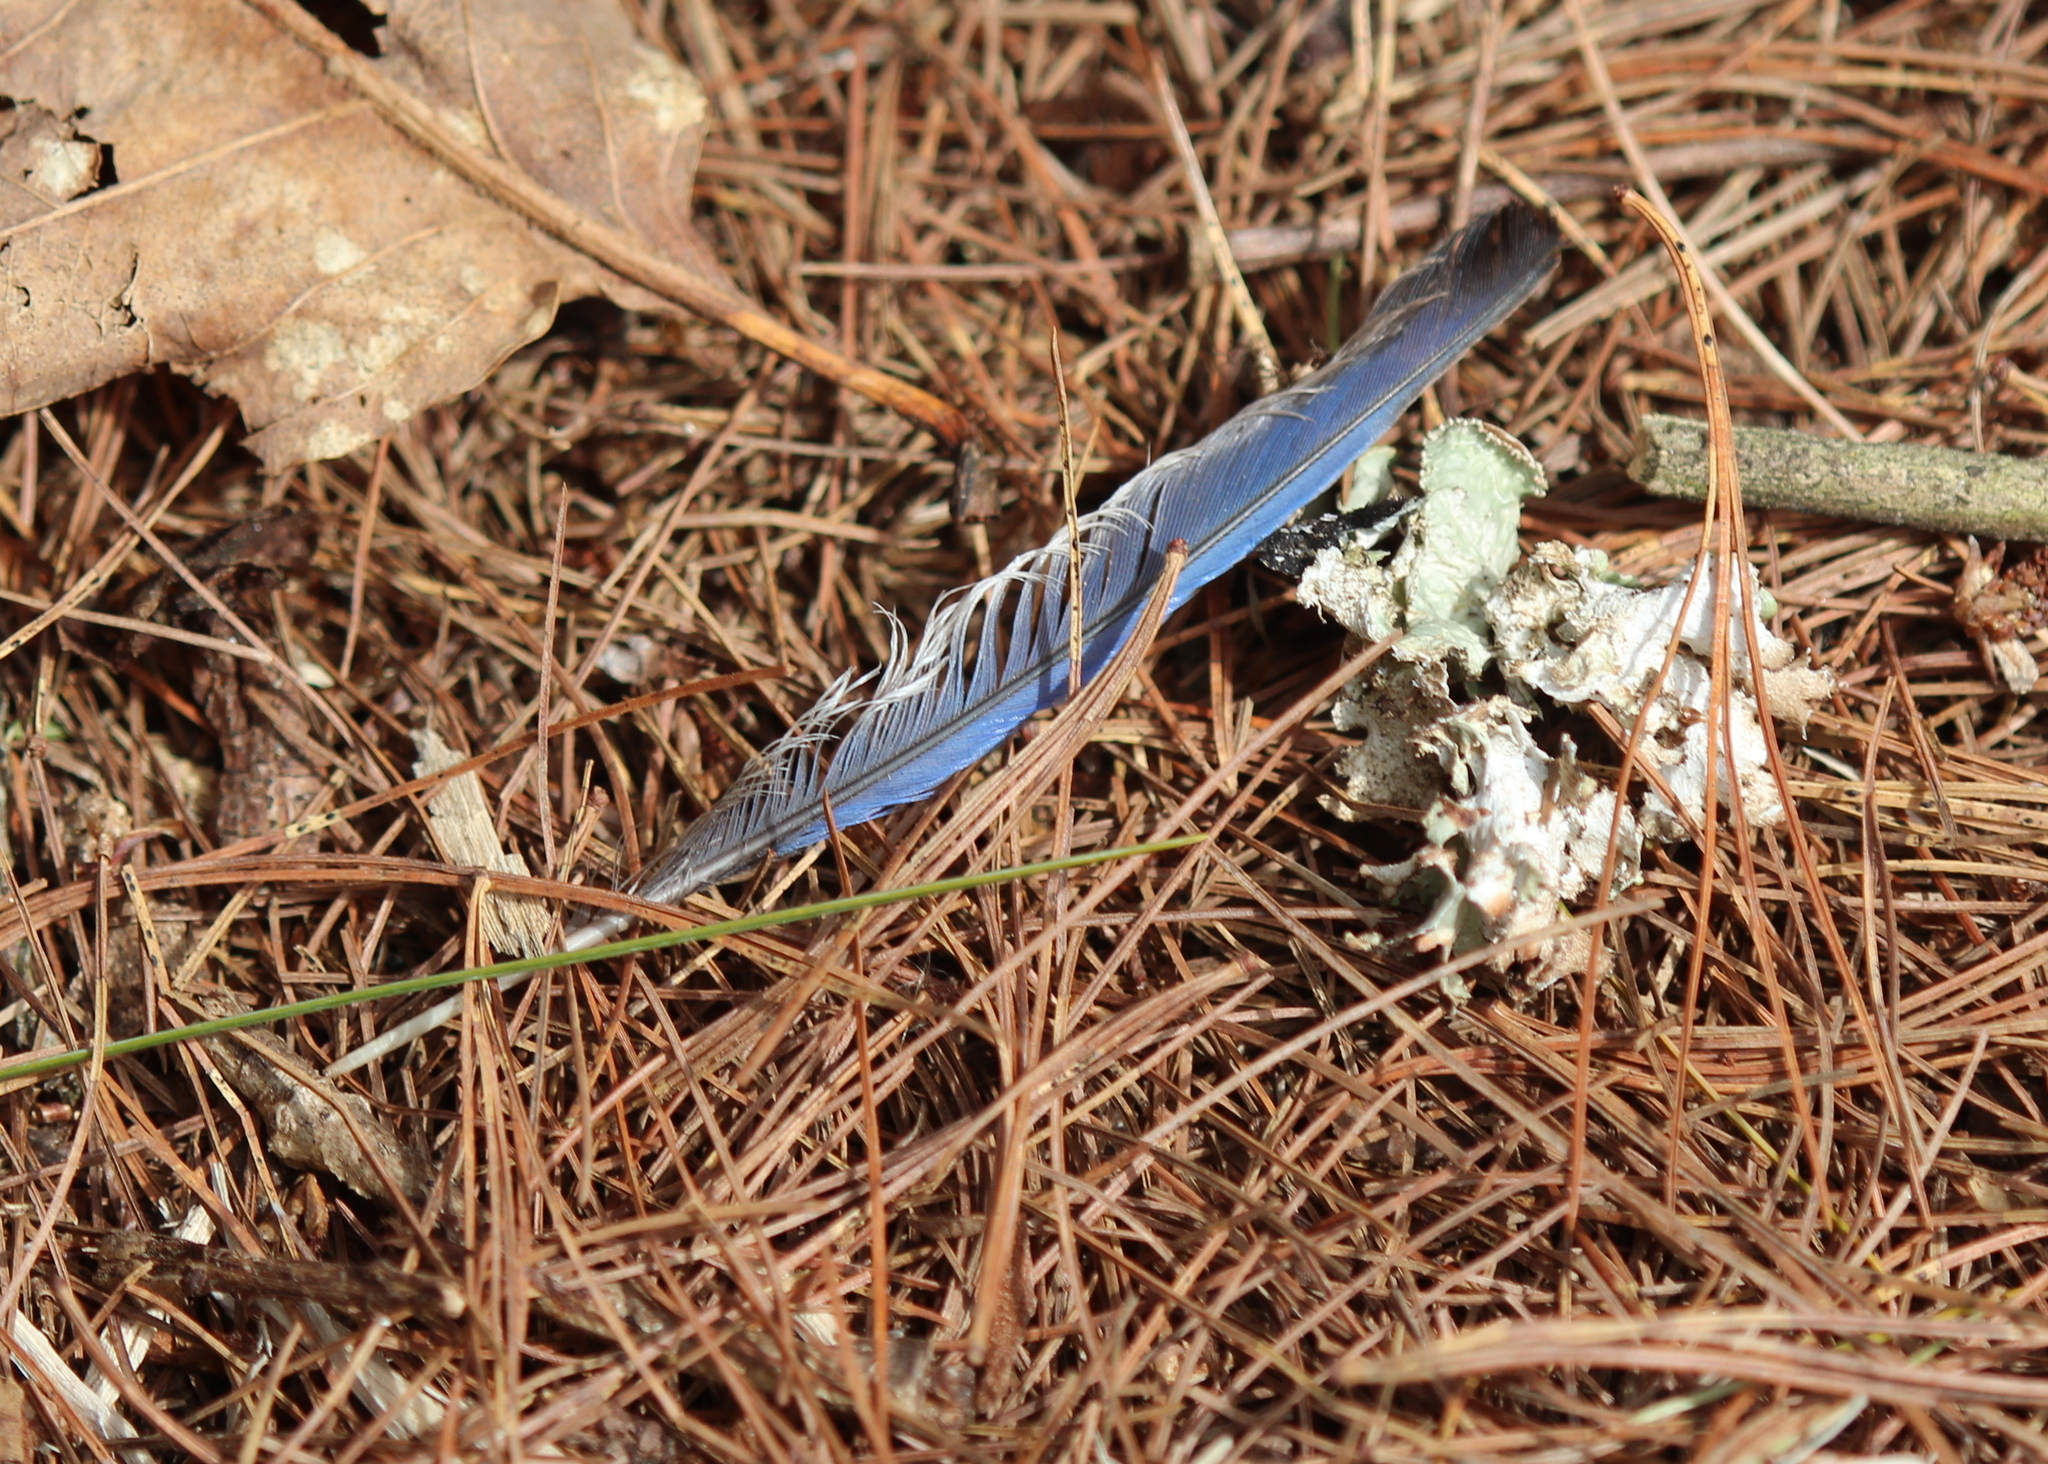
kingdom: Animalia
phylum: Chordata
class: Aves
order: Passeriformes
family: Corvidae
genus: Cyanocitta
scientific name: Cyanocitta cristata
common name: Blue jay
